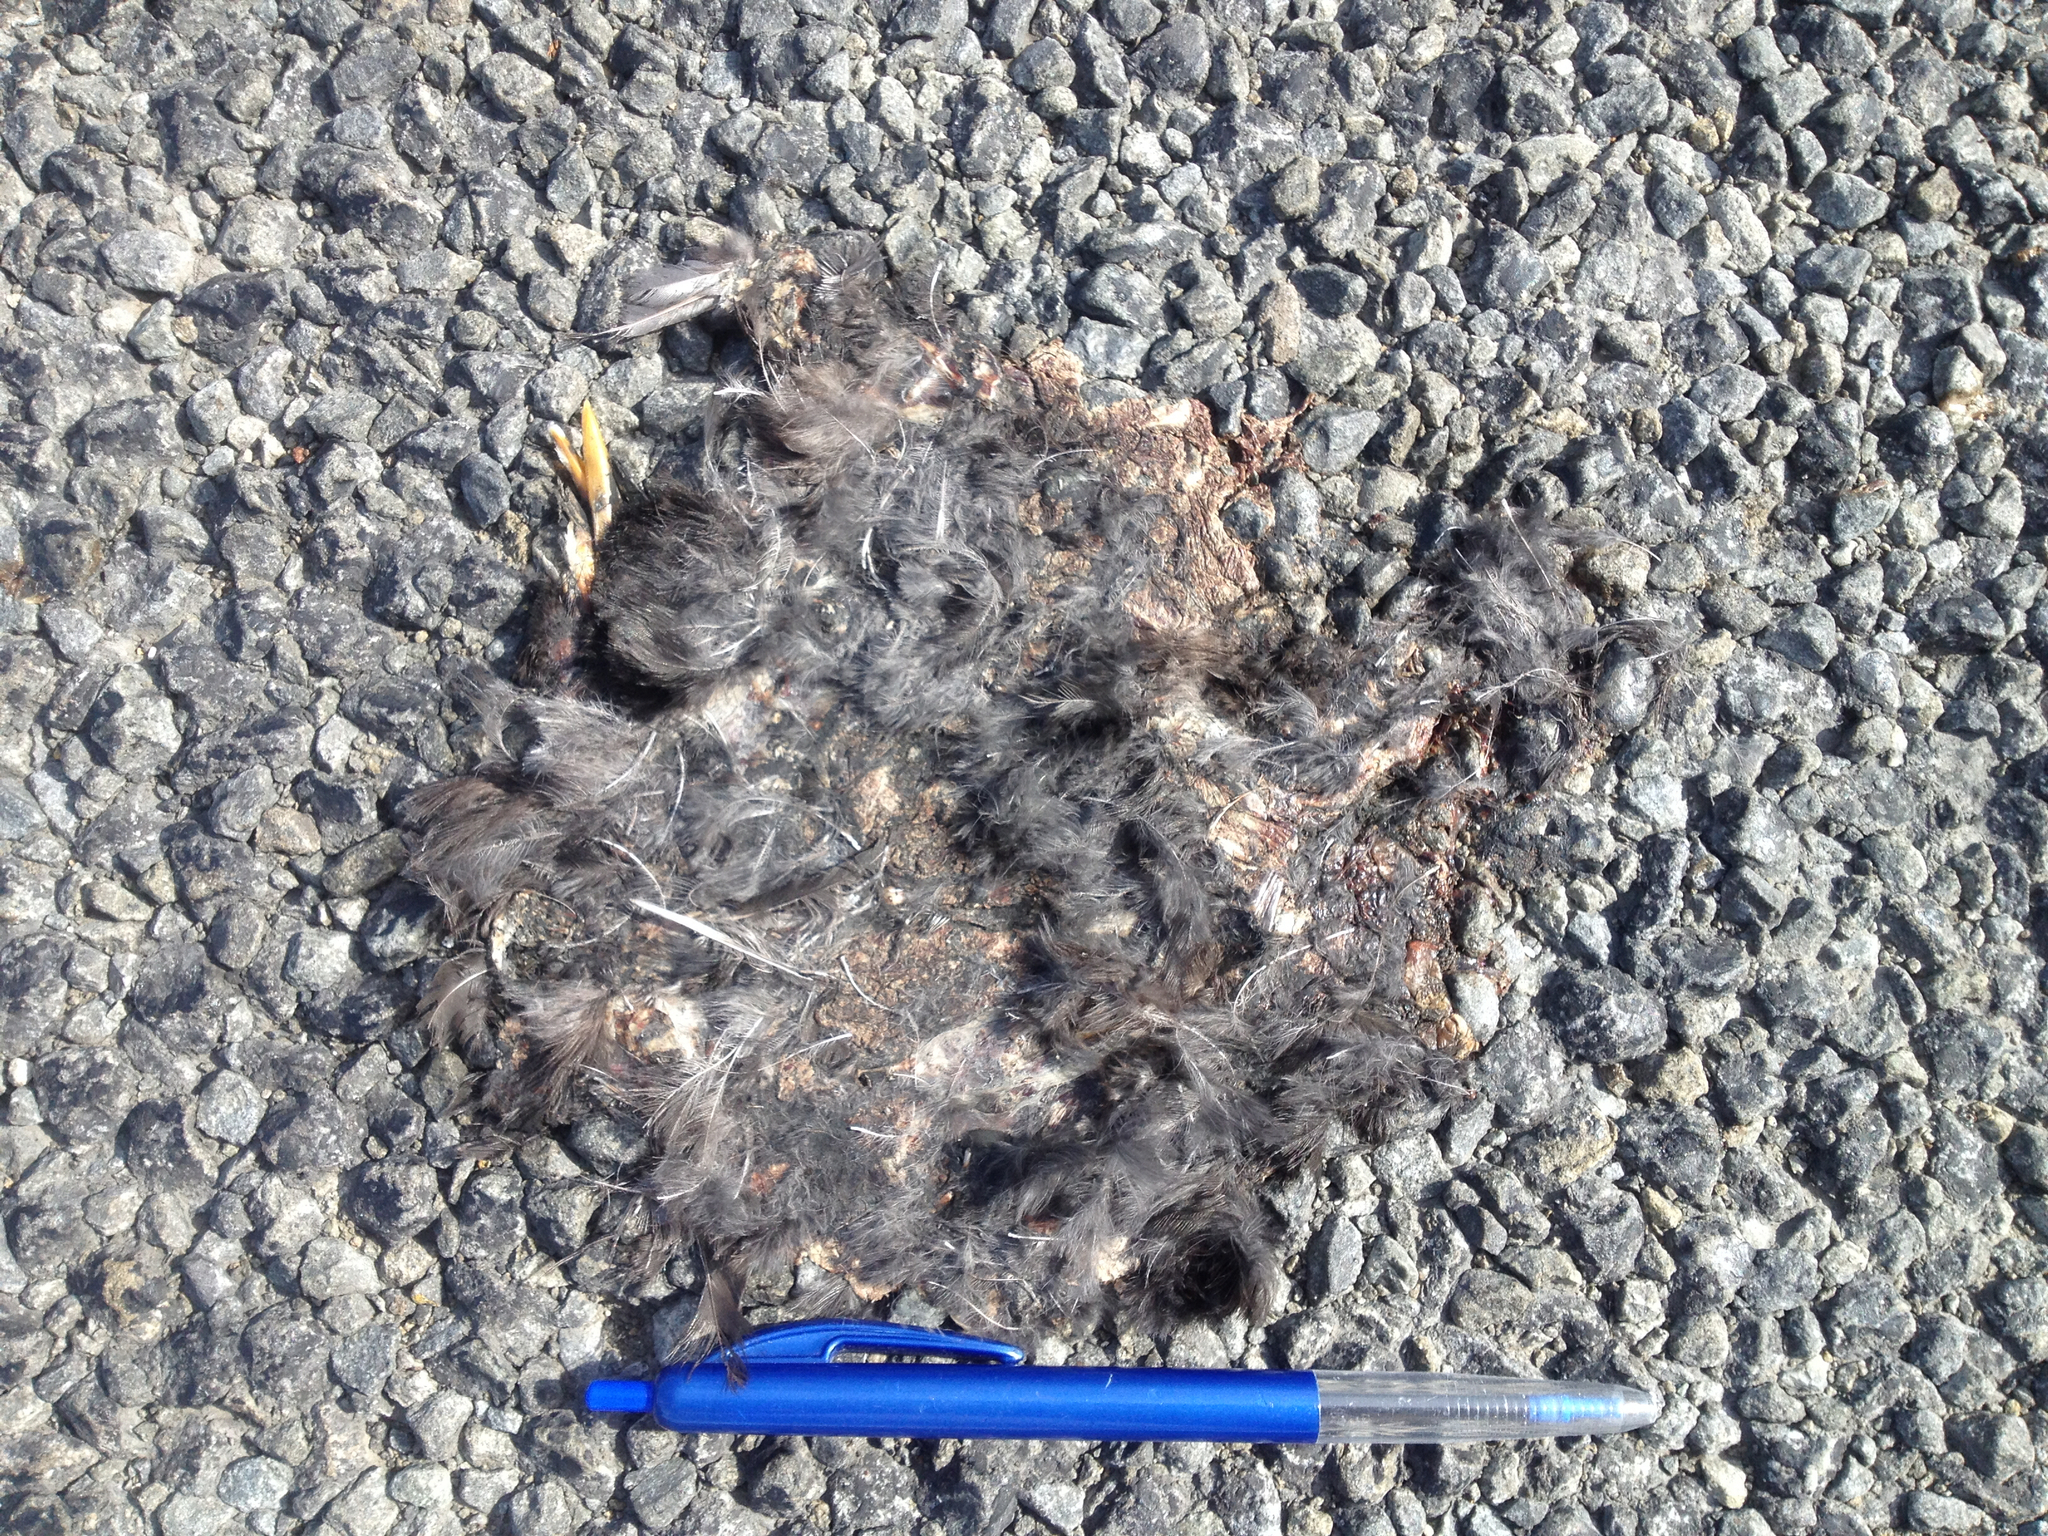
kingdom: Animalia
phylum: Chordata
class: Aves
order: Passeriformes
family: Turdidae
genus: Turdus
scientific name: Turdus merula
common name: Common blackbird
